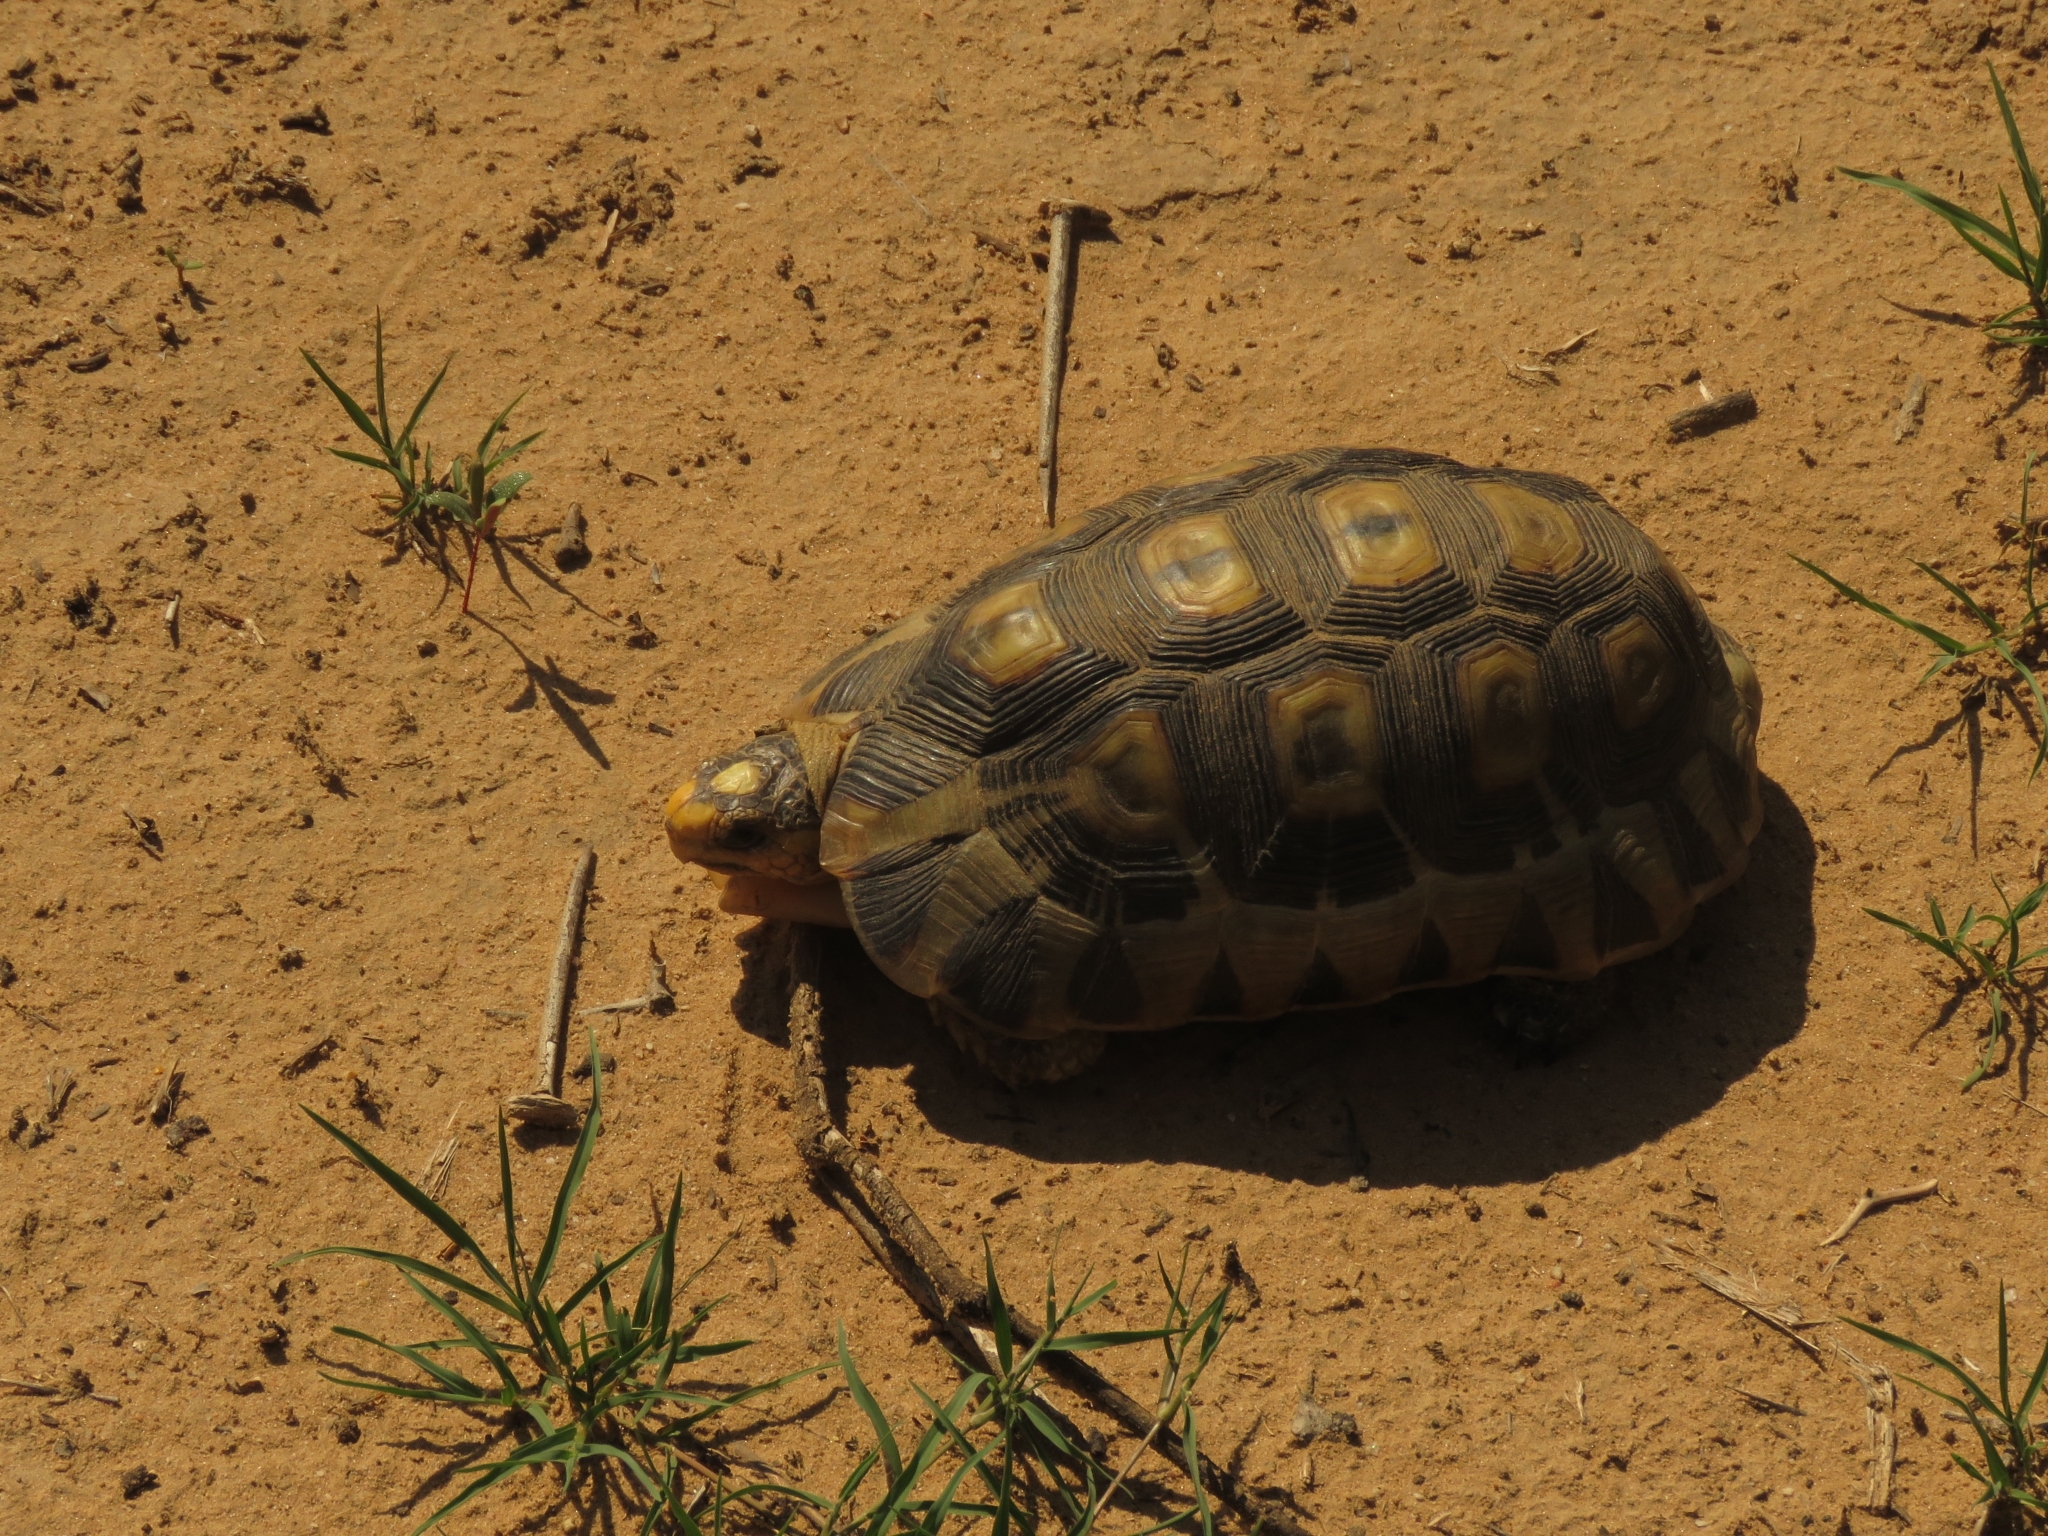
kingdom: Animalia
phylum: Chordata
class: Testudines
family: Testudinidae
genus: Chersina
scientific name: Chersina angulata
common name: South african bowsprit tortoise
